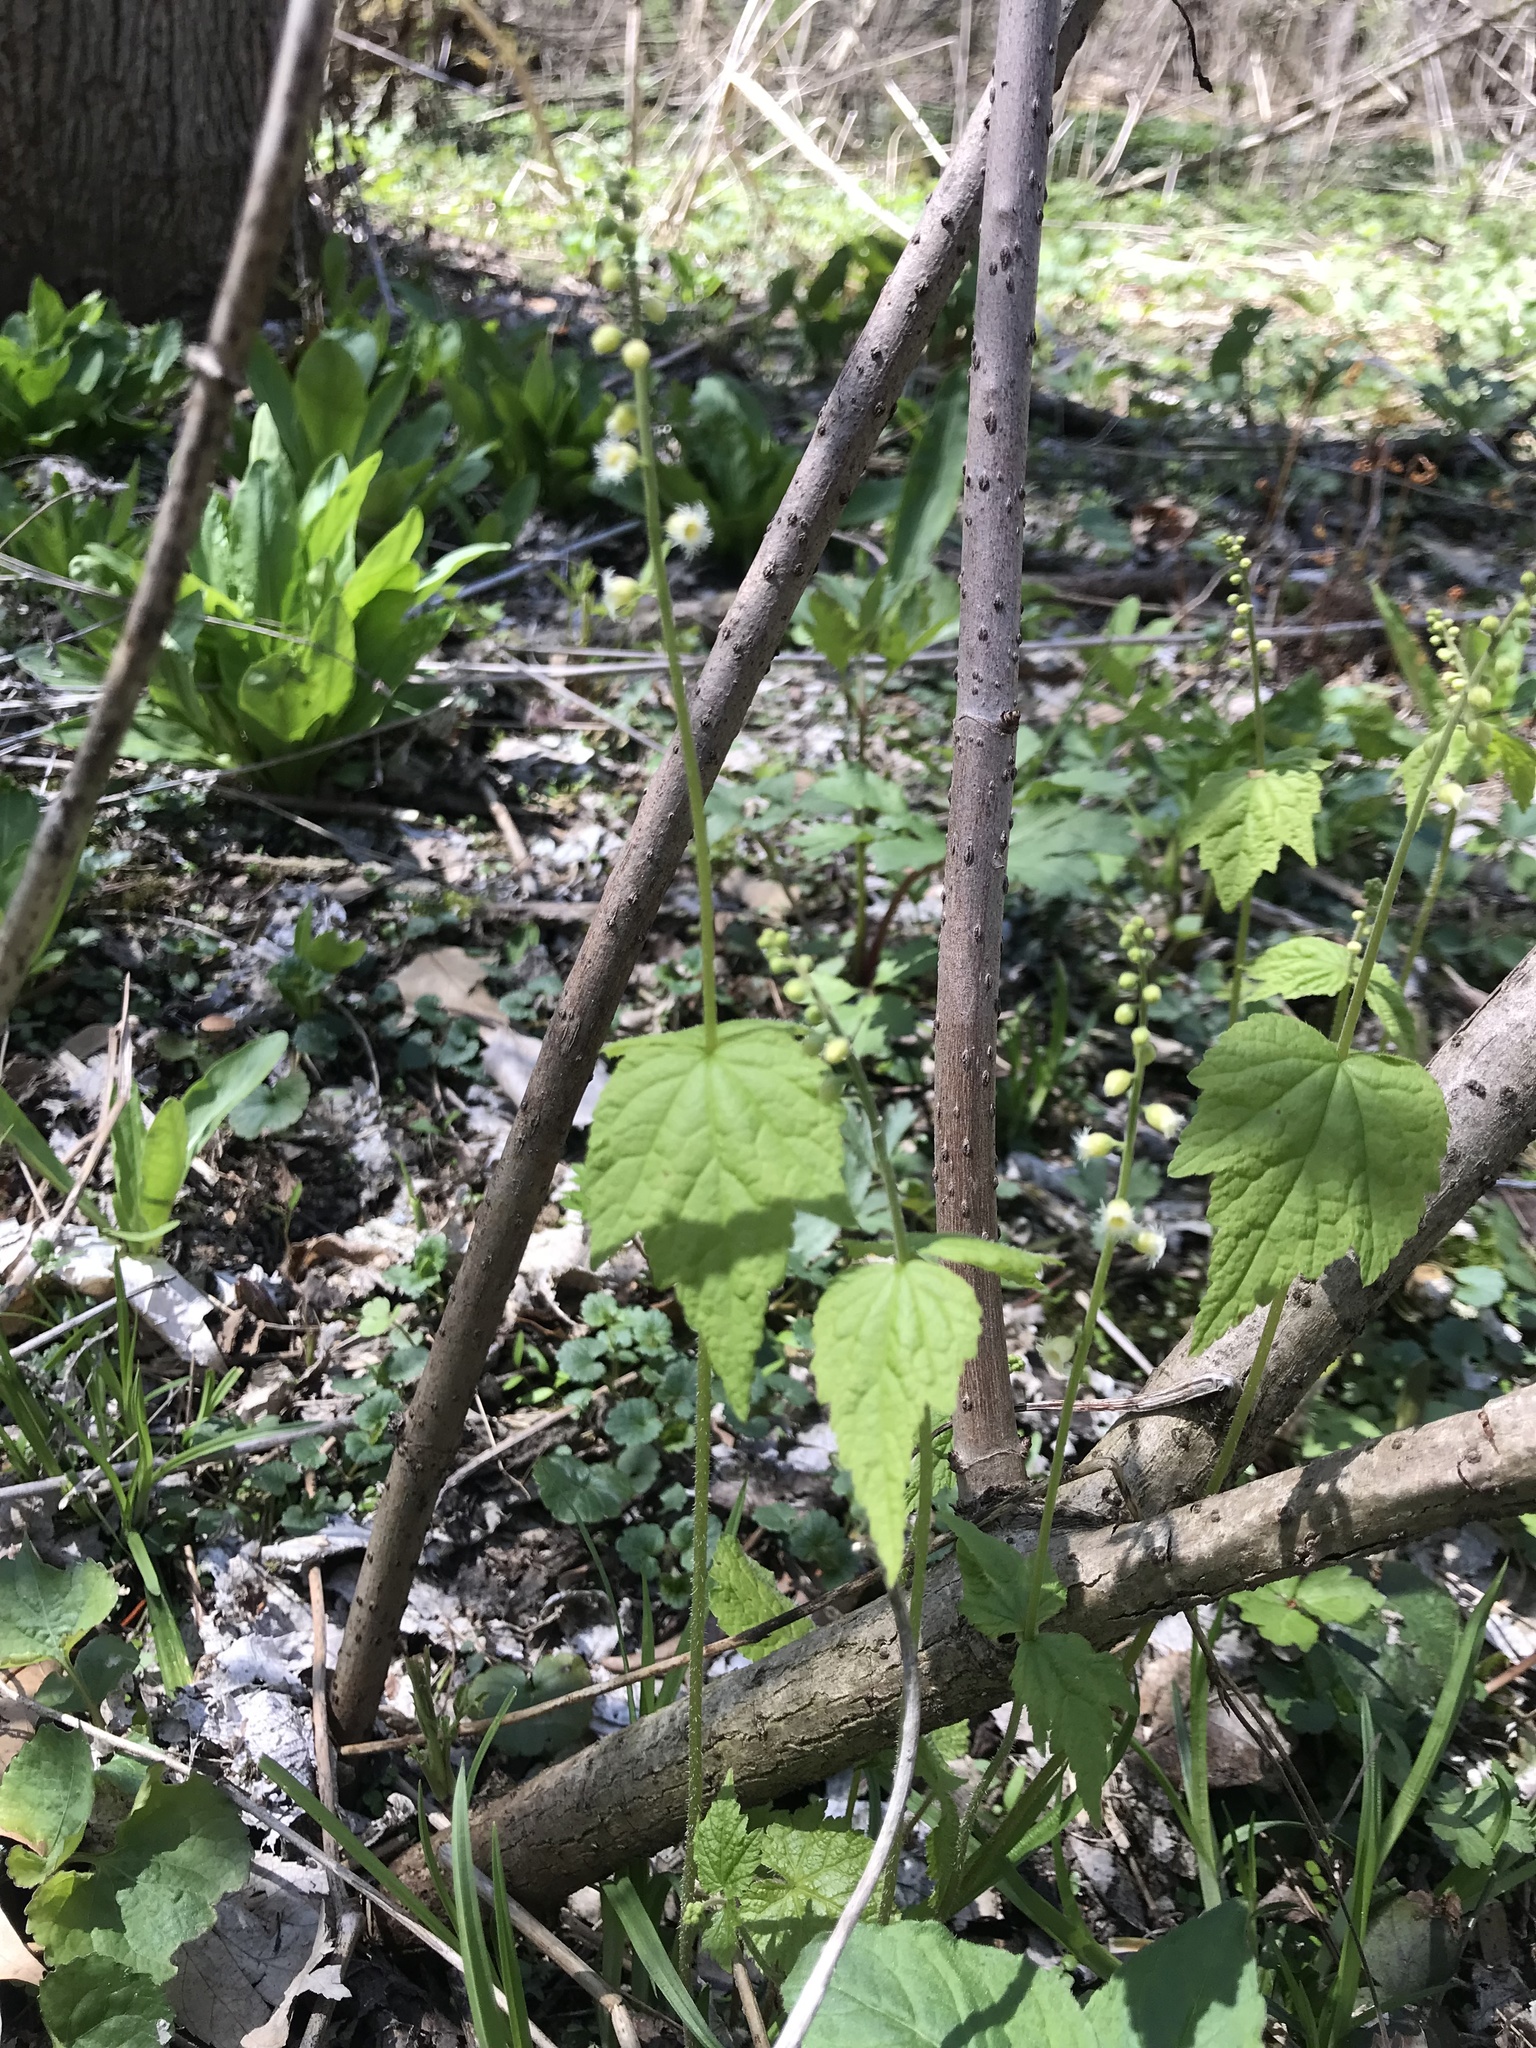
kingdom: Plantae
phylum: Tracheophyta
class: Magnoliopsida
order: Saxifragales
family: Saxifragaceae
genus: Mitella
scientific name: Mitella diphylla
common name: Coolwort
